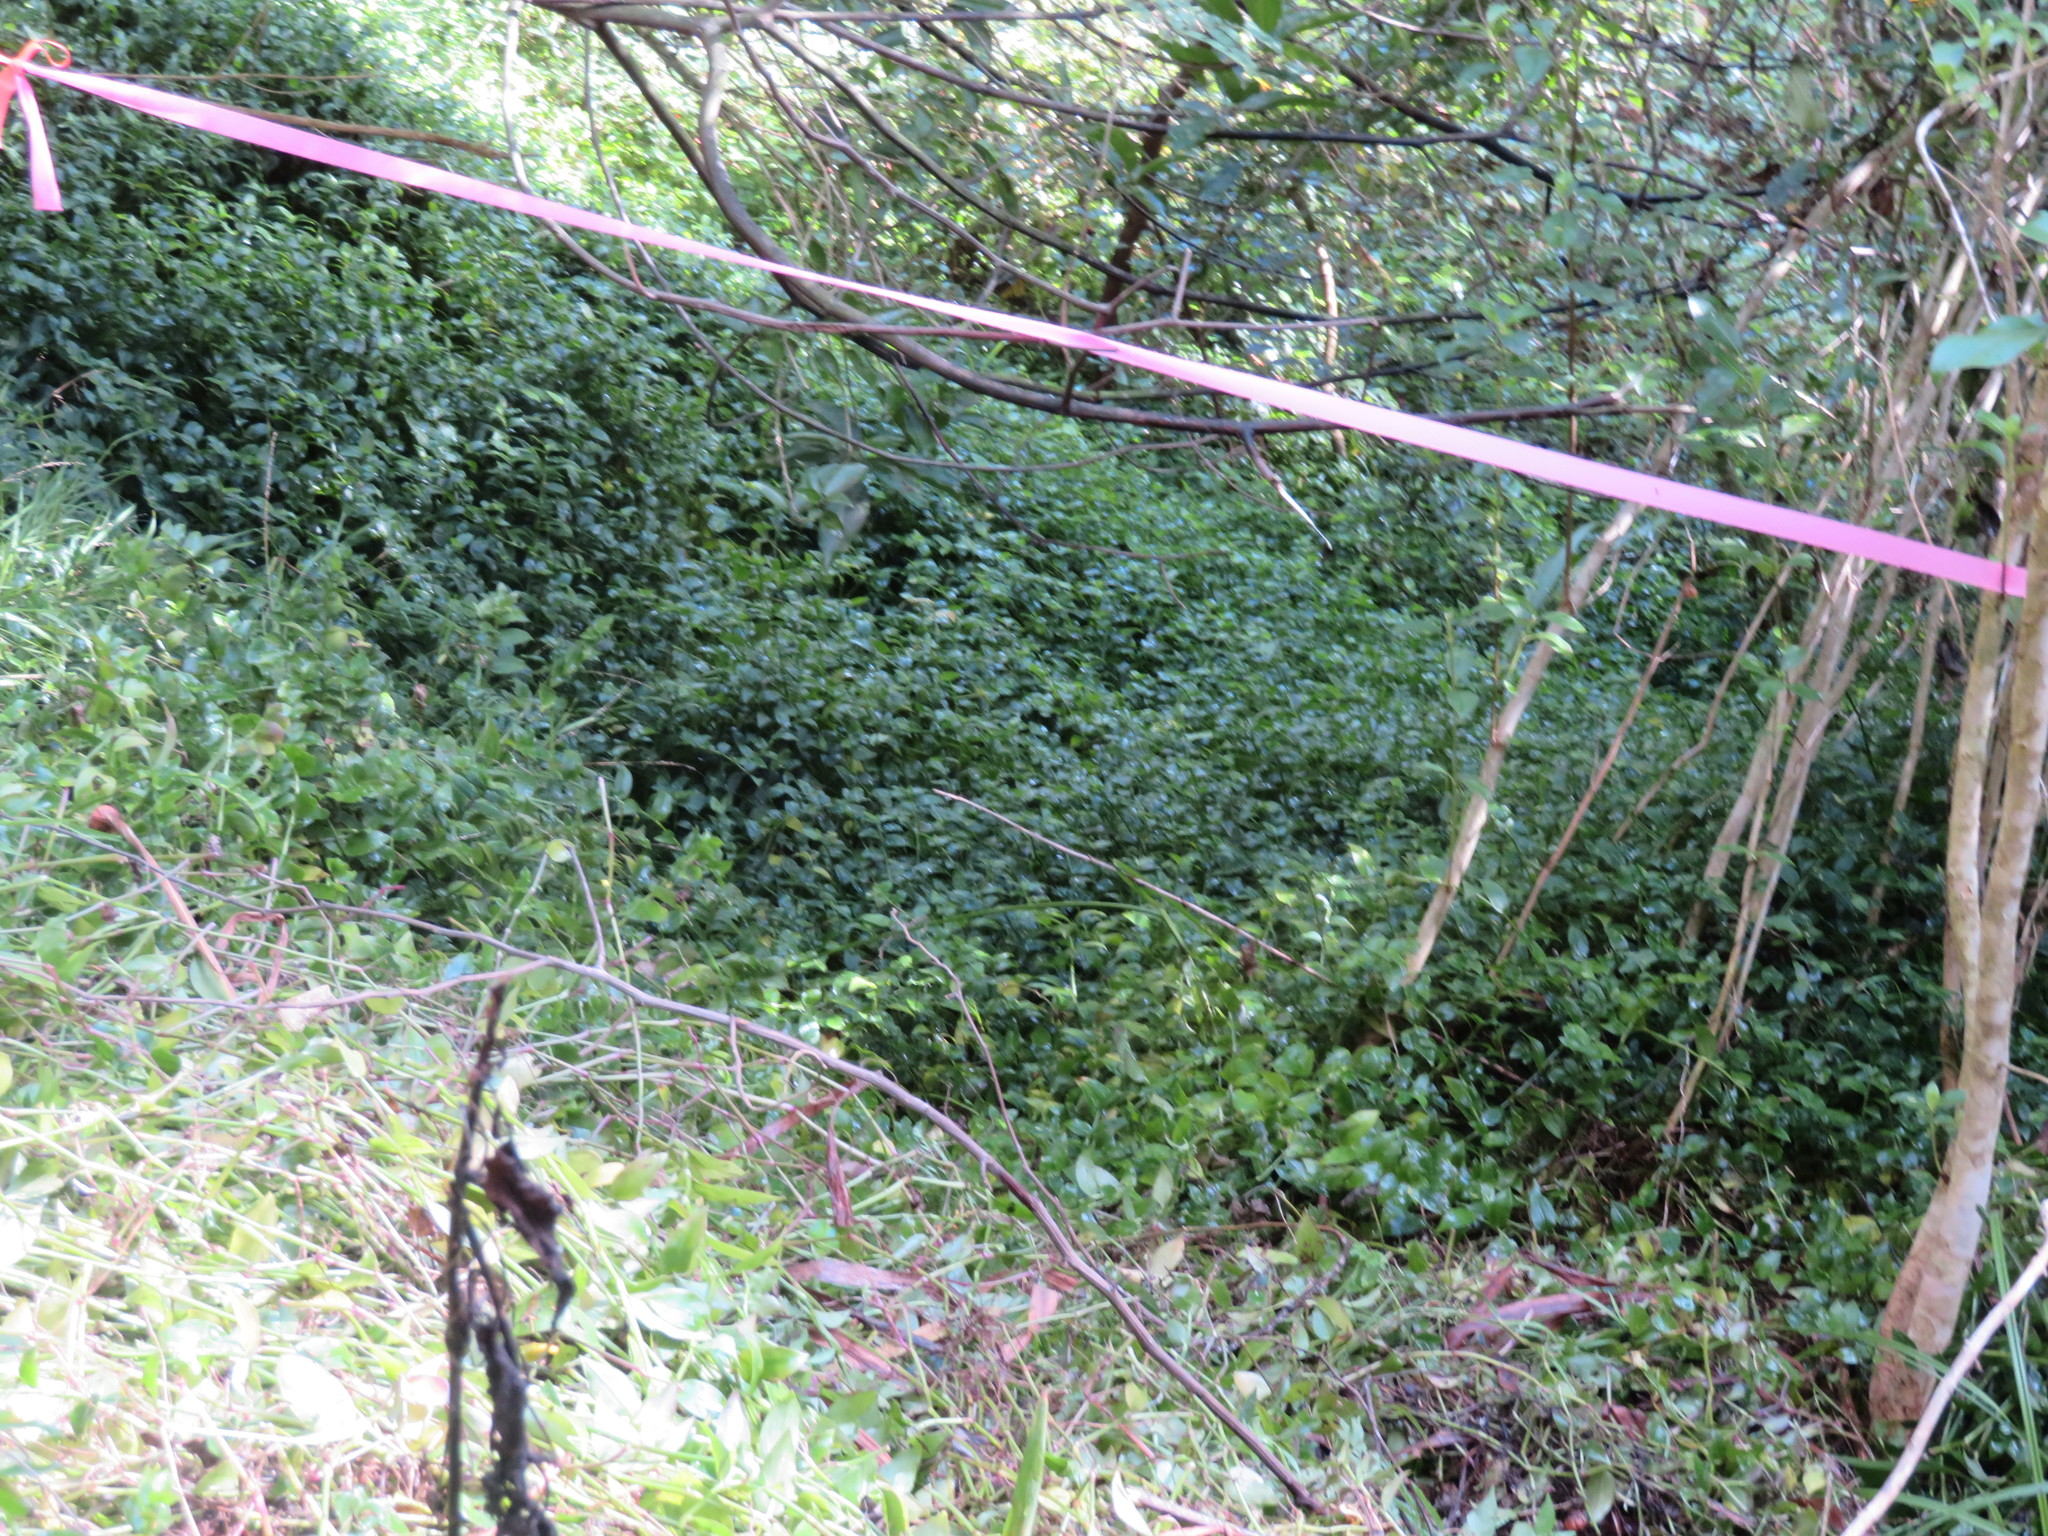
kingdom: Plantae
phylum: Tracheophyta
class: Liliopsida
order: Commelinales
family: Commelinaceae
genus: Tradescantia
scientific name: Tradescantia fluminensis
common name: Wandering-jew
